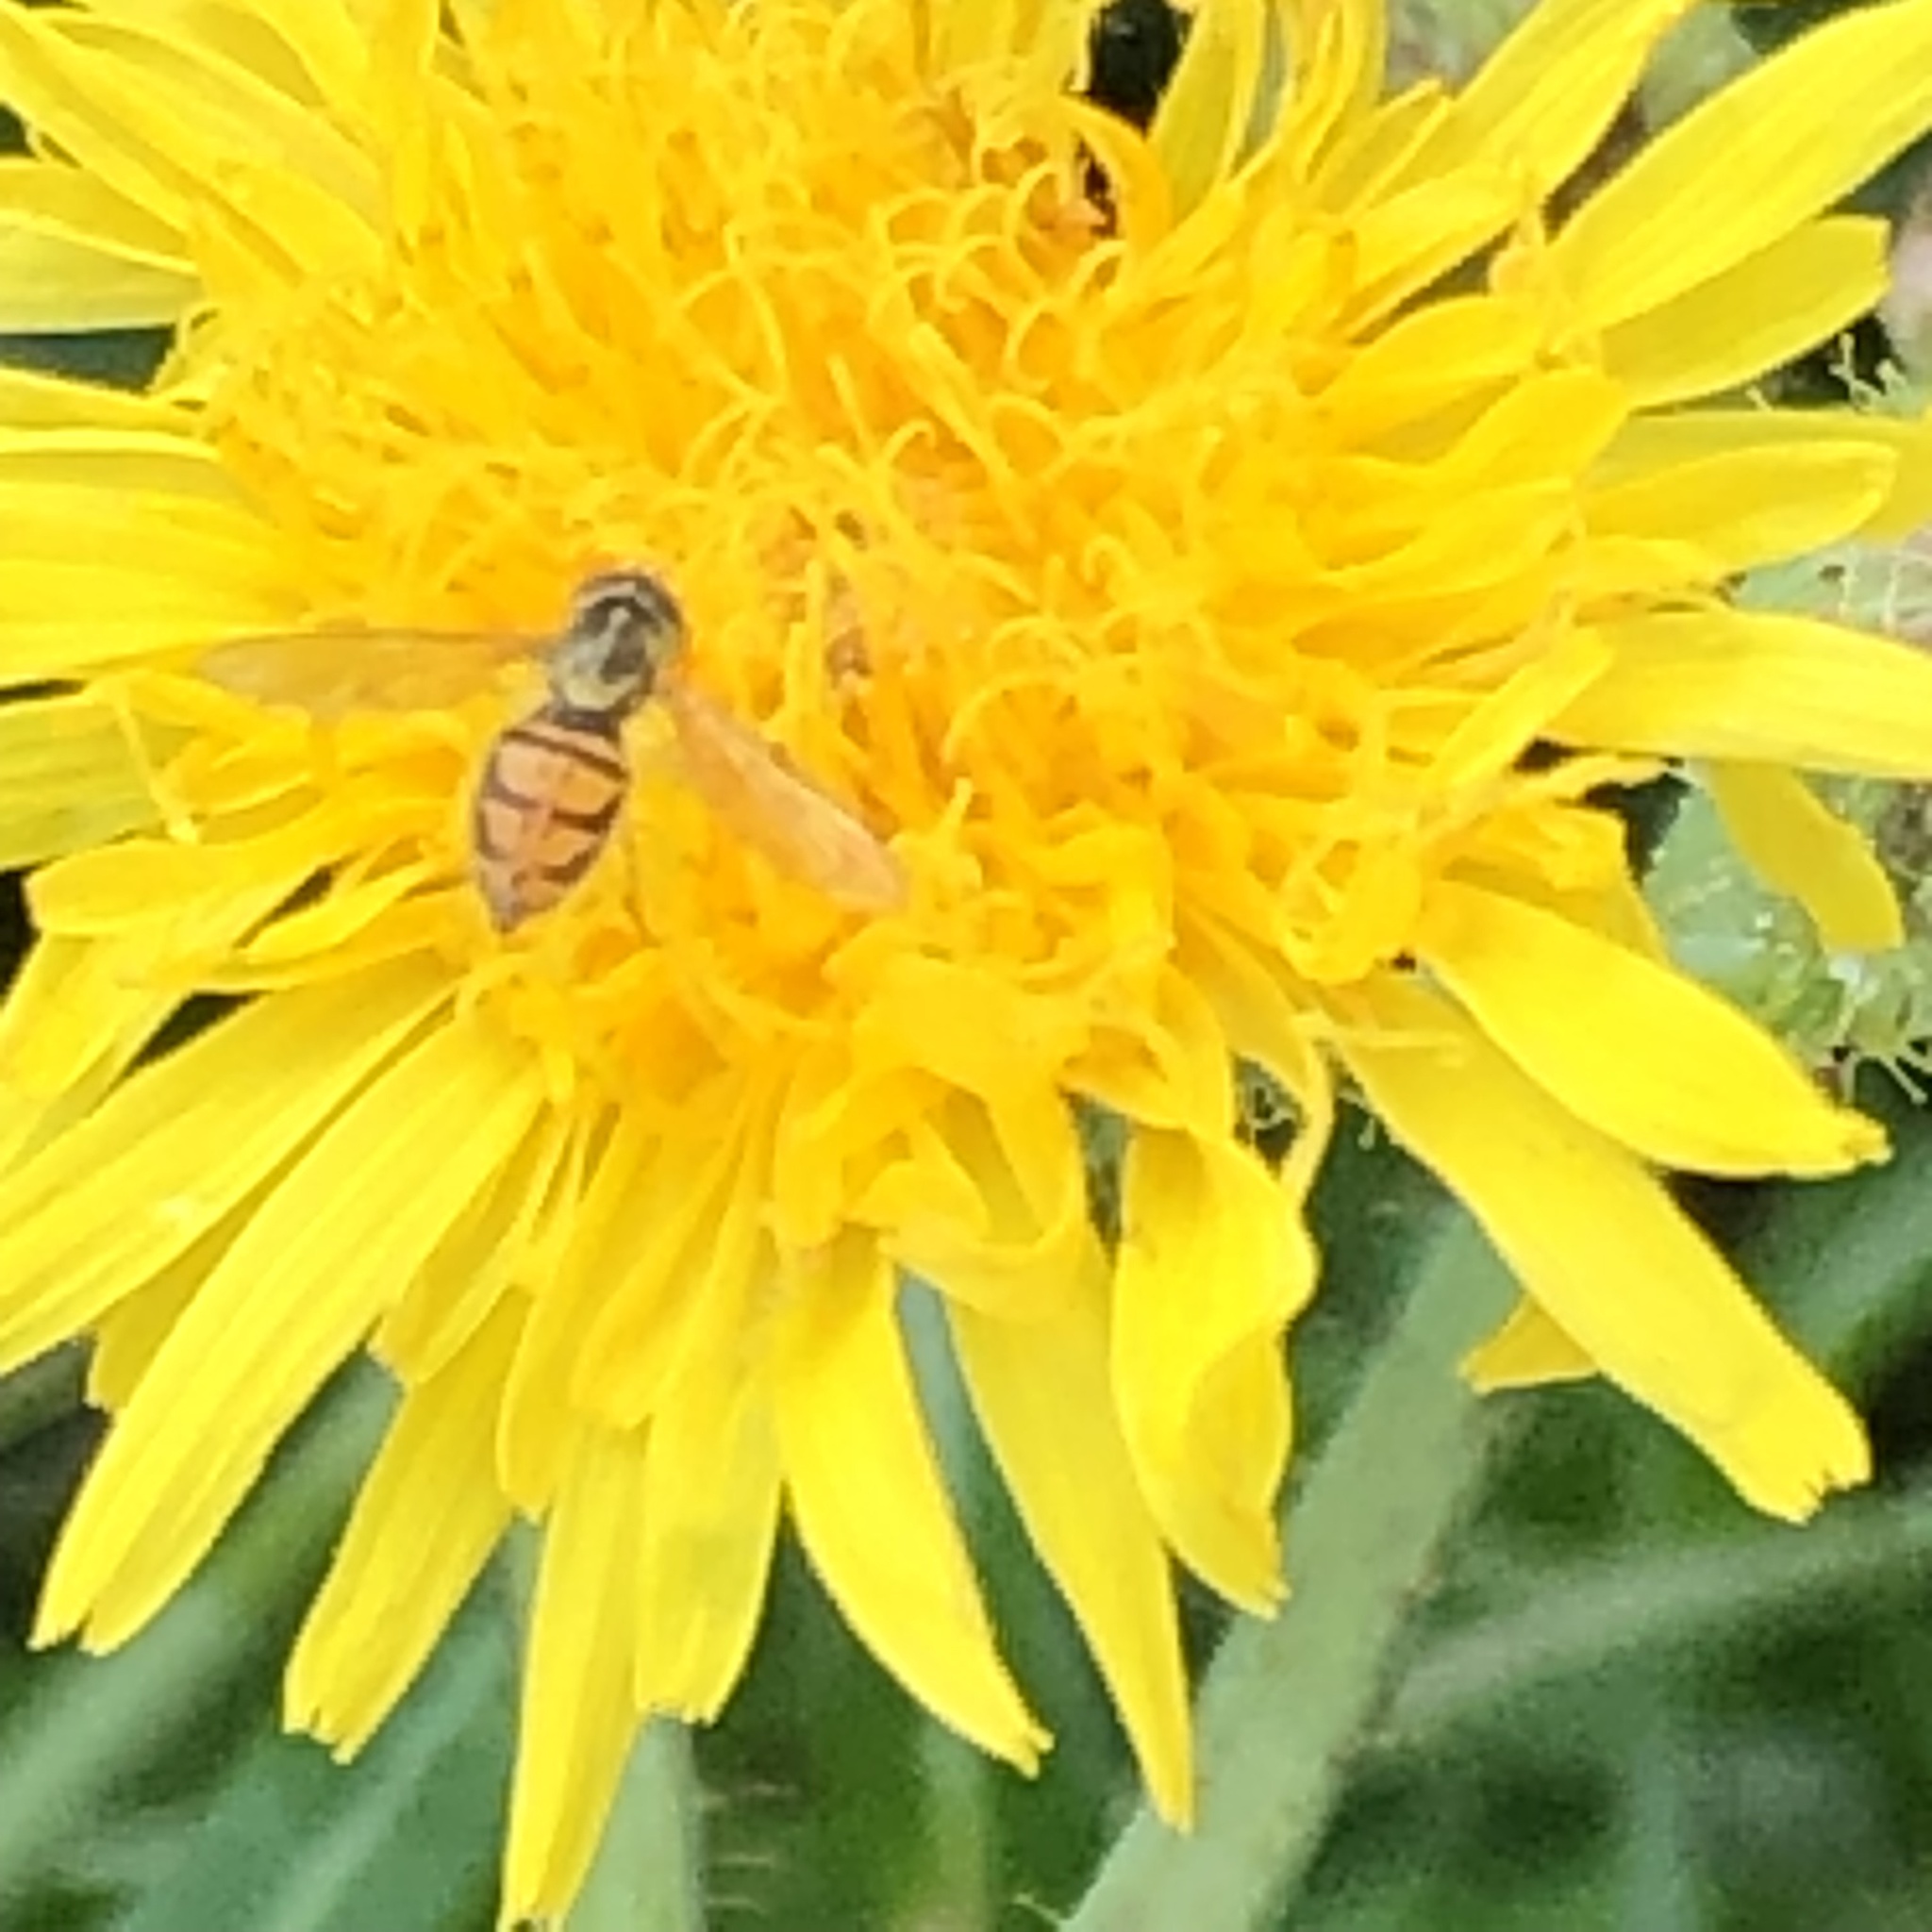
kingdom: Animalia
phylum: Arthropoda
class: Insecta
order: Diptera
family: Syrphidae
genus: Toxomerus
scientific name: Toxomerus marginatus
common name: Syrphid fly
